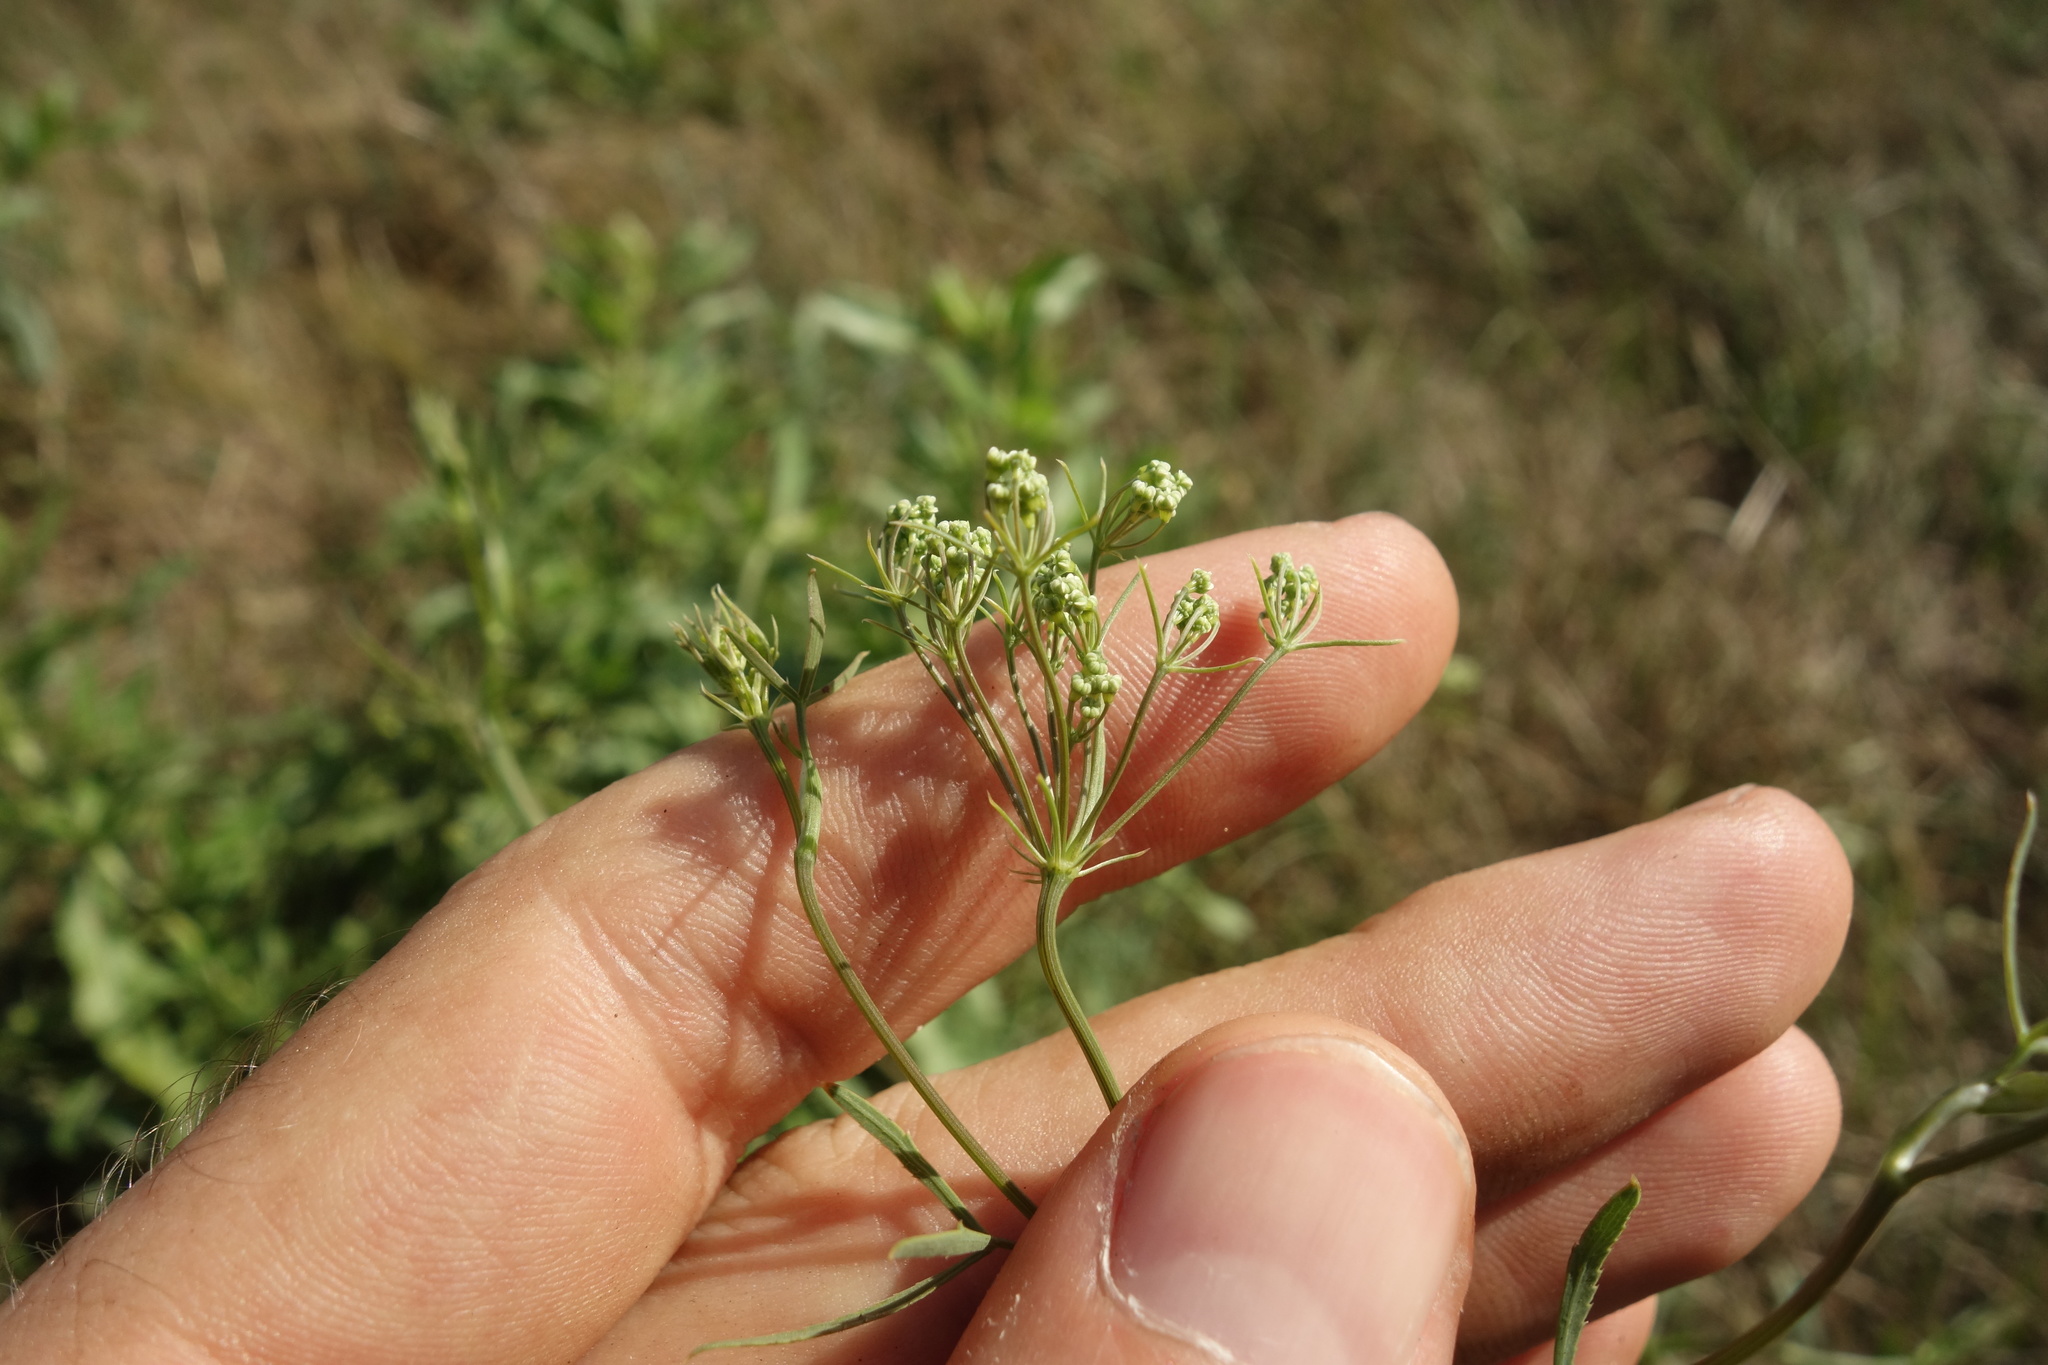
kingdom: Plantae
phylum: Tracheophyta
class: Magnoliopsida
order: Apiales
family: Apiaceae
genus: Falcaria
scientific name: Falcaria vulgaris
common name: Longleaf
